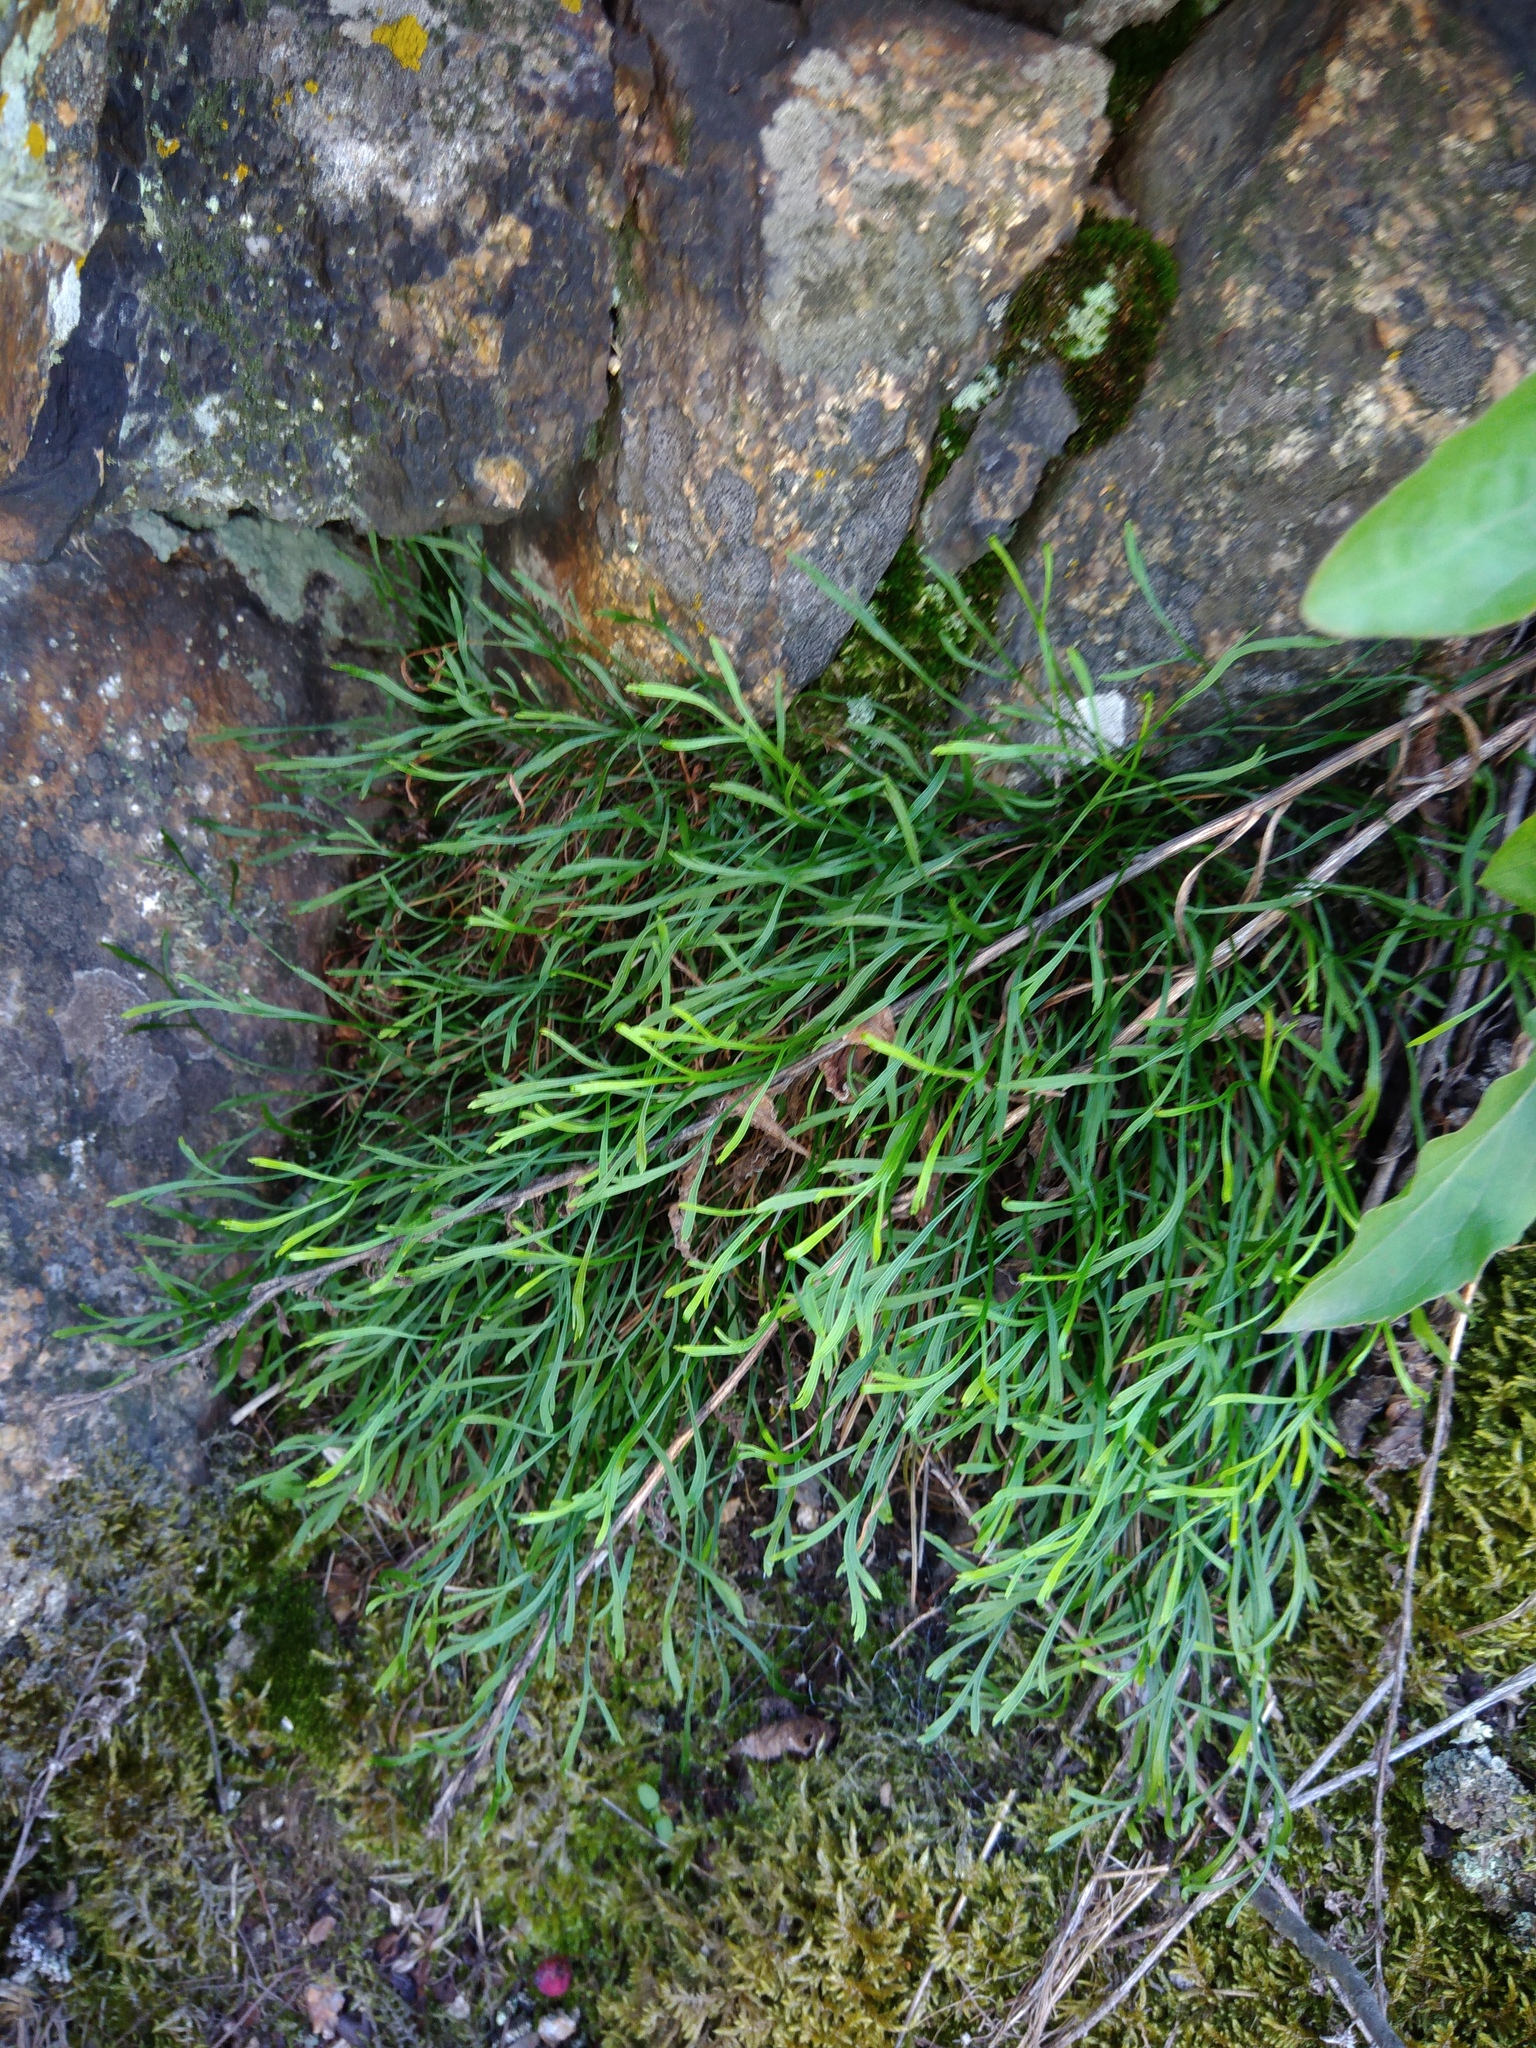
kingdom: Plantae
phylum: Tracheophyta
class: Polypodiopsida
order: Polypodiales
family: Aspleniaceae
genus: Asplenium
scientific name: Asplenium septentrionale
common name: Forked spleenwort
